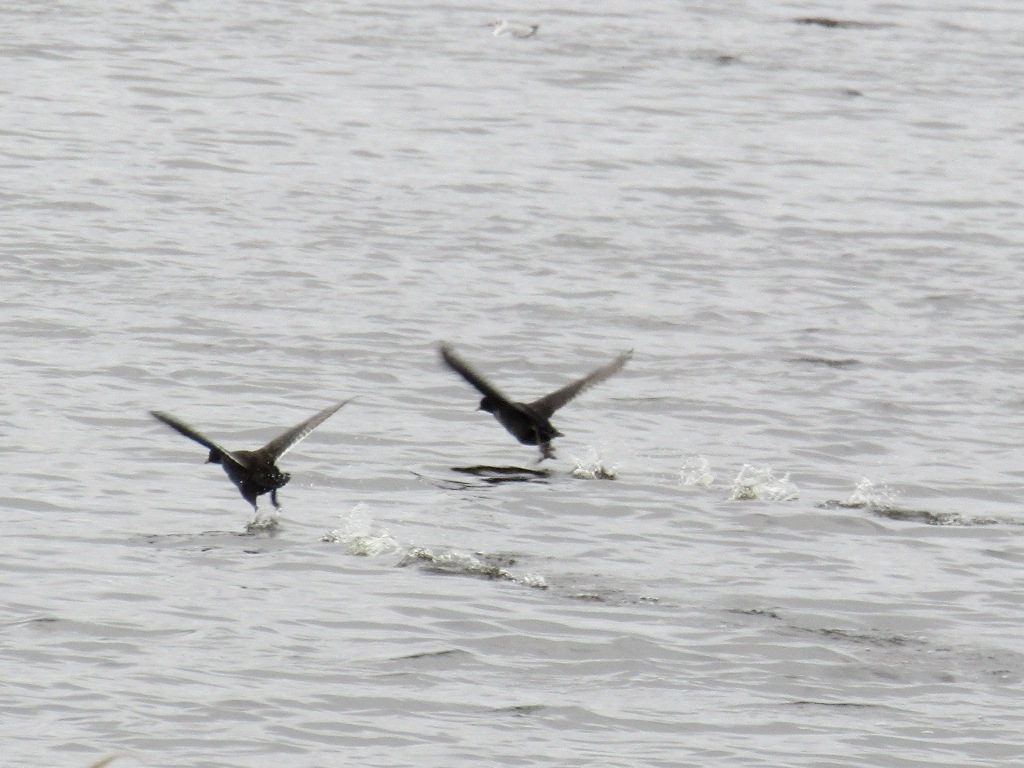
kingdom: Animalia
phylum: Chordata
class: Aves
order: Gruiformes
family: Rallidae
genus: Fulica
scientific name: Fulica atra
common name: Eurasian coot
